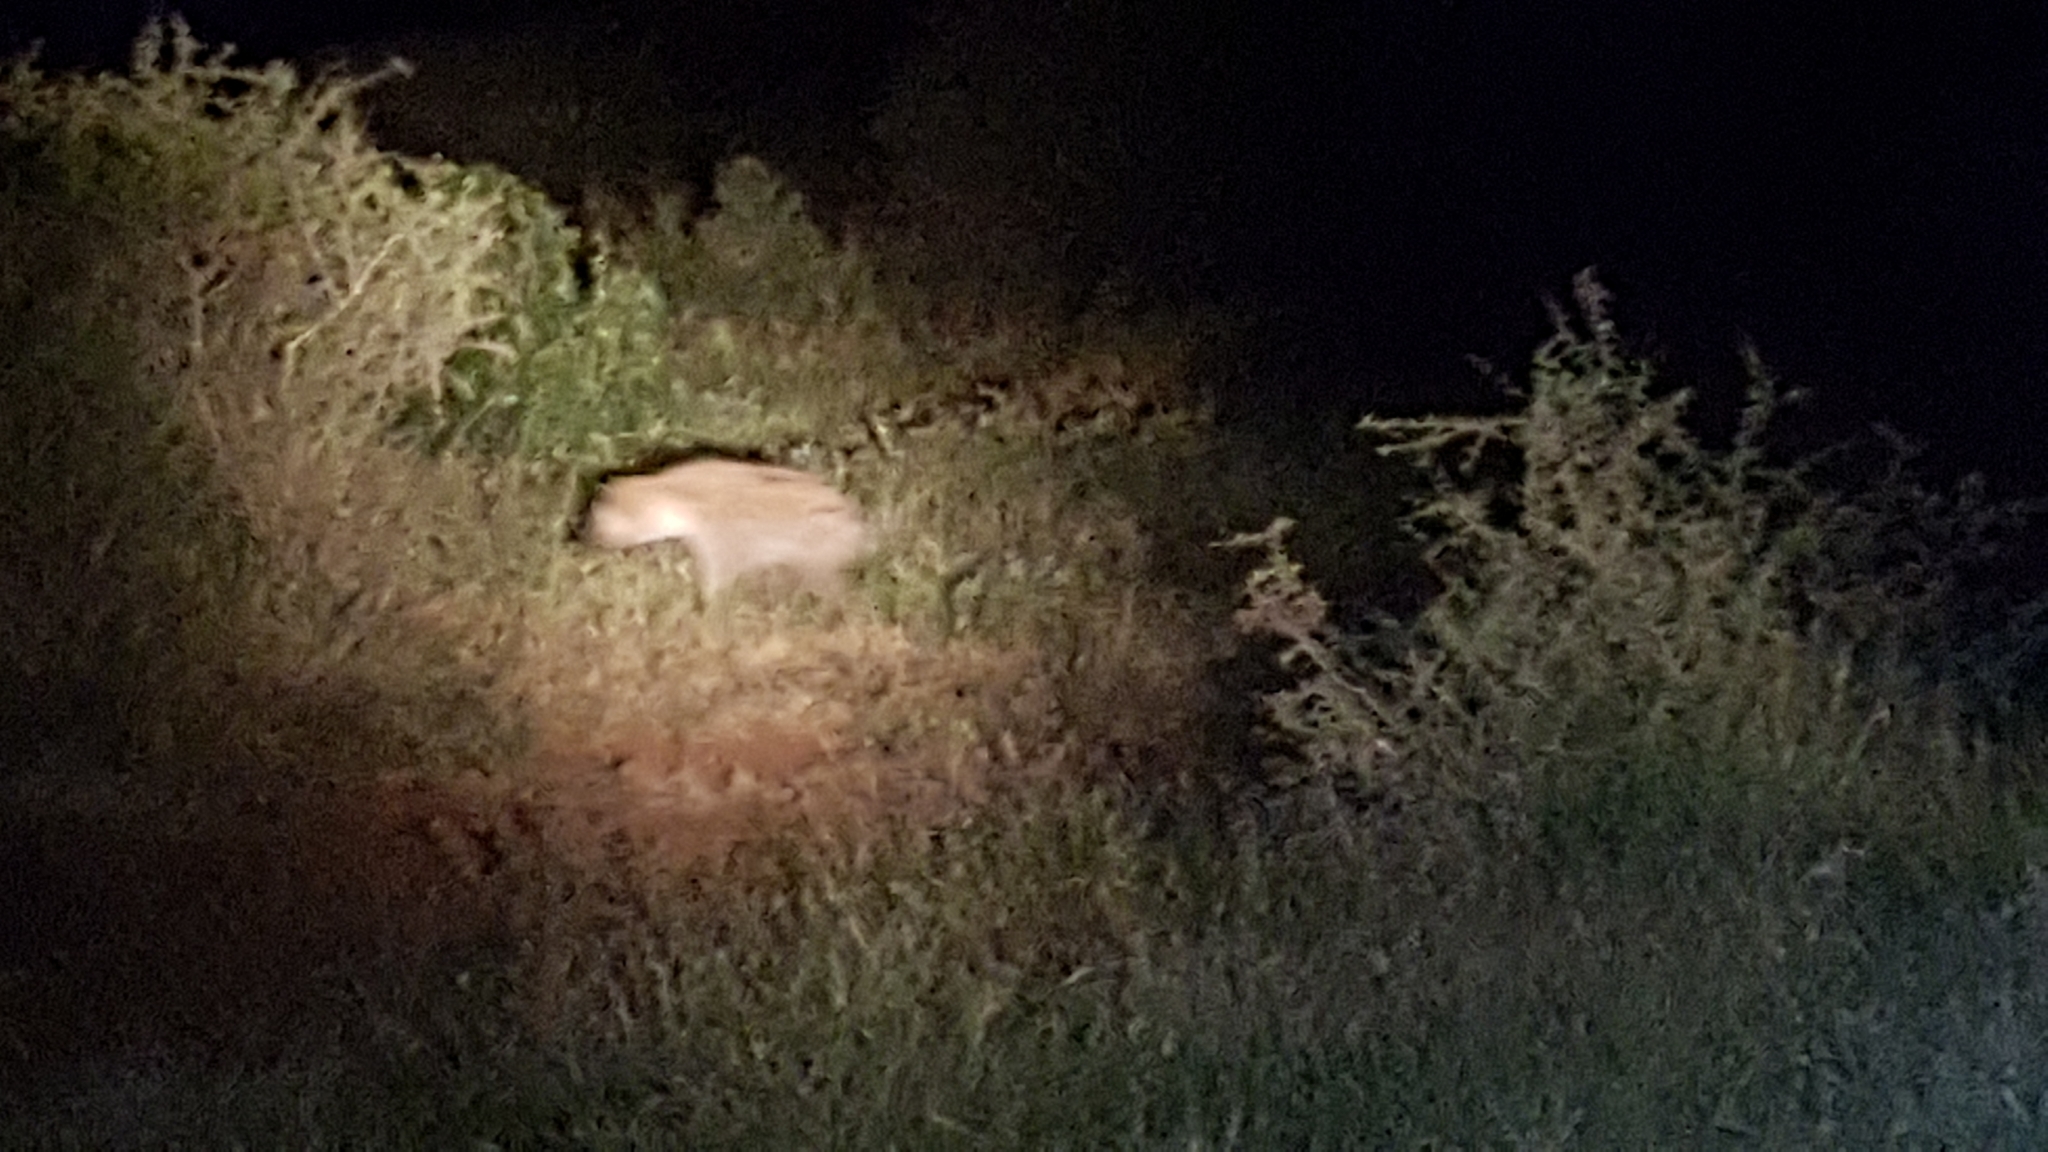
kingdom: Animalia
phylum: Chordata
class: Mammalia
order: Carnivora
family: Hyaenidae
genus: Crocuta
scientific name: Crocuta crocuta
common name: Spotted hyaena
